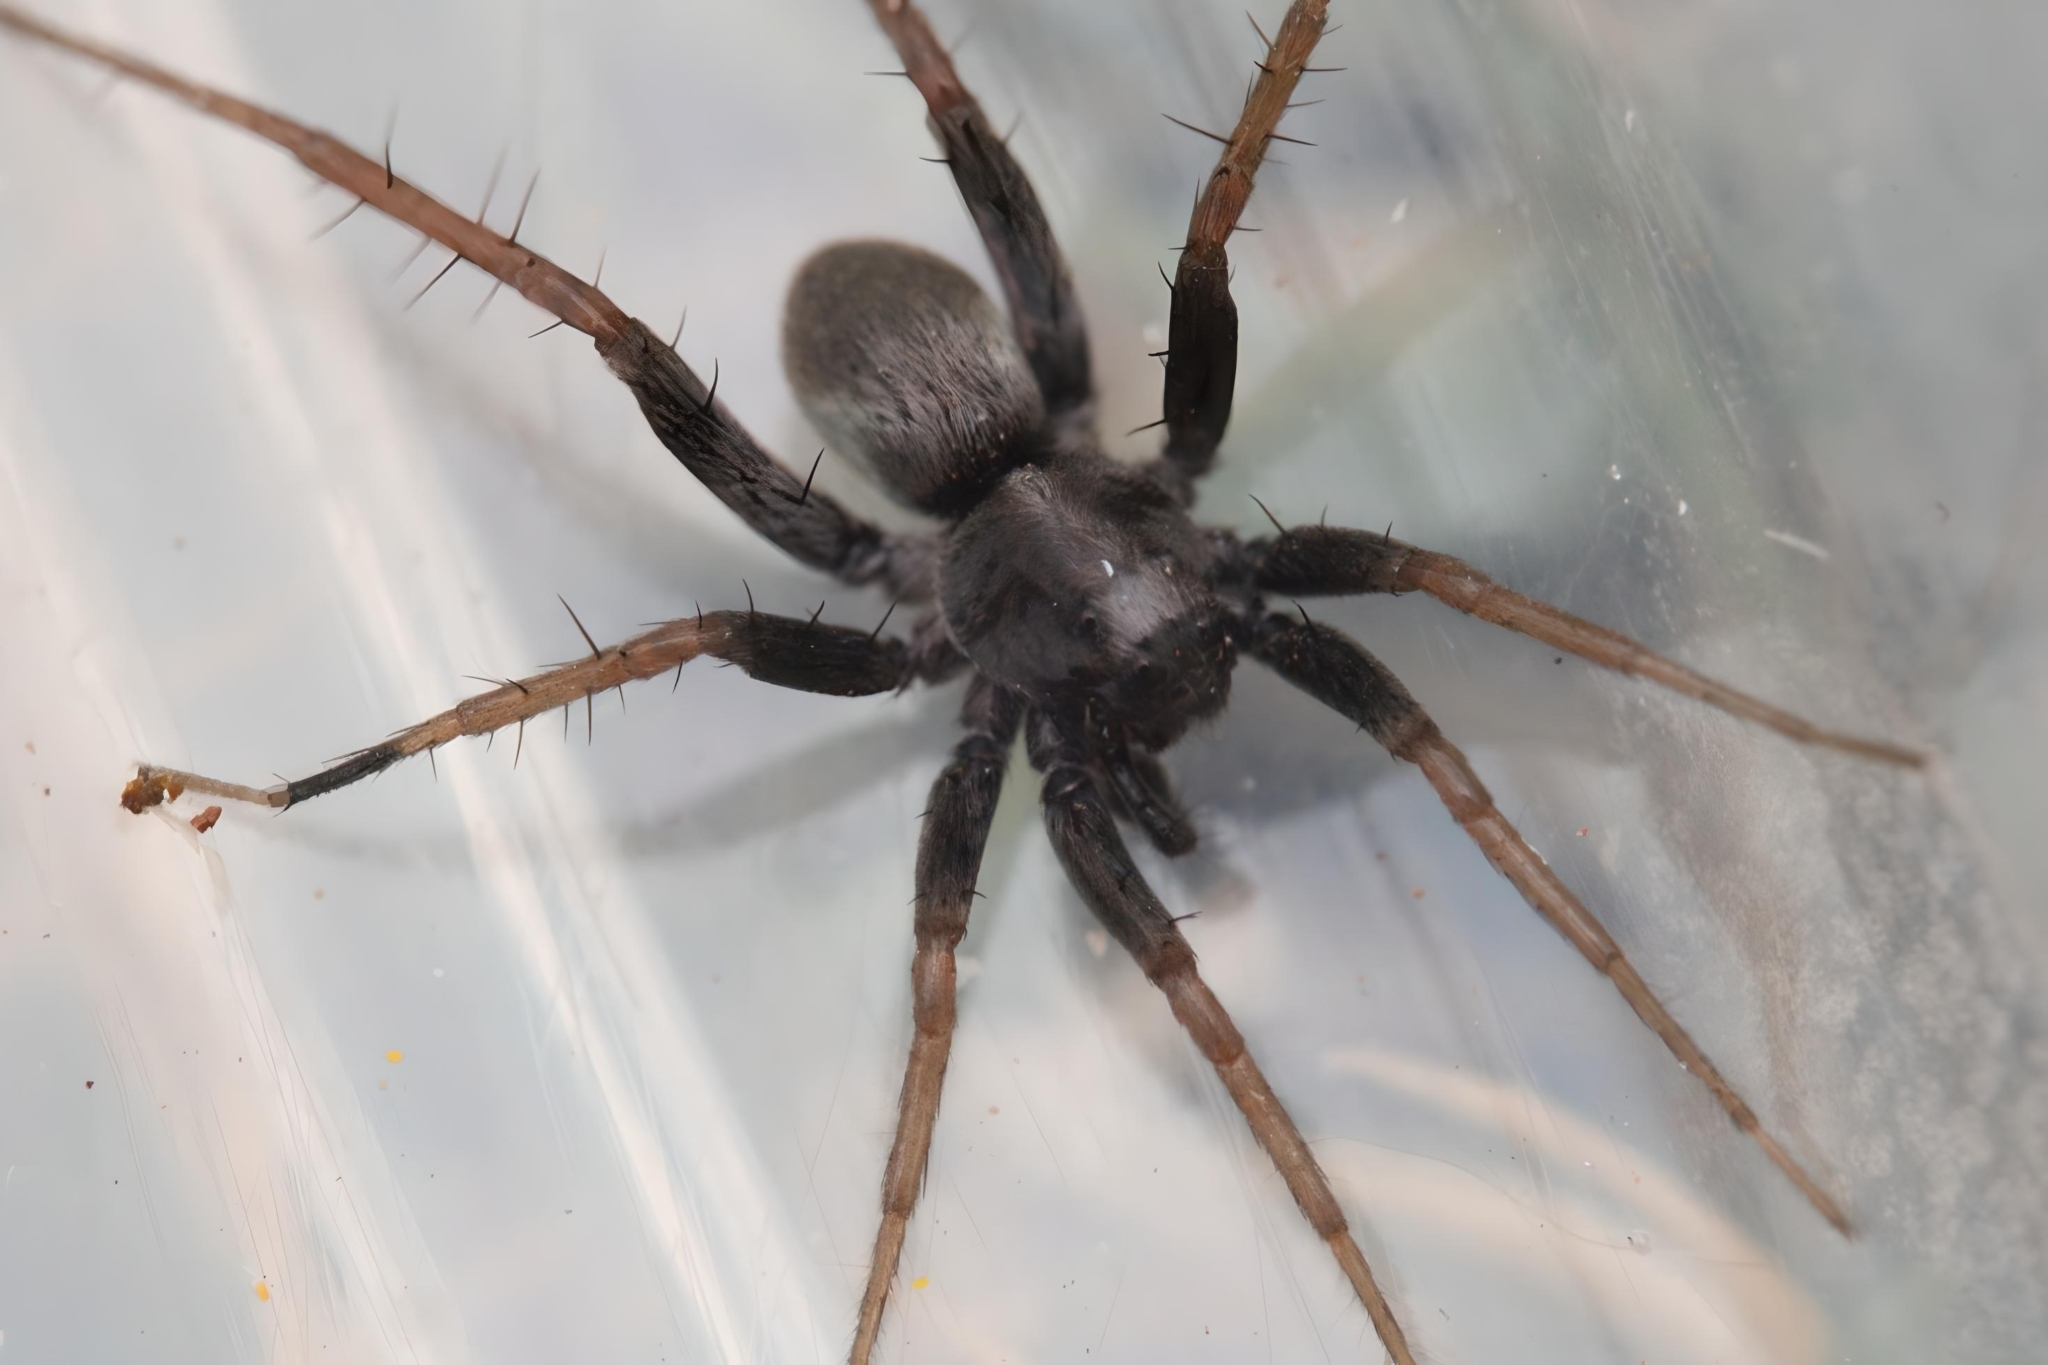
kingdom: Animalia
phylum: Arthropoda
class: Arachnida
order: Araneae
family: Lycosidae
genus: Foveosa
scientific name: Foveosa foveolata
